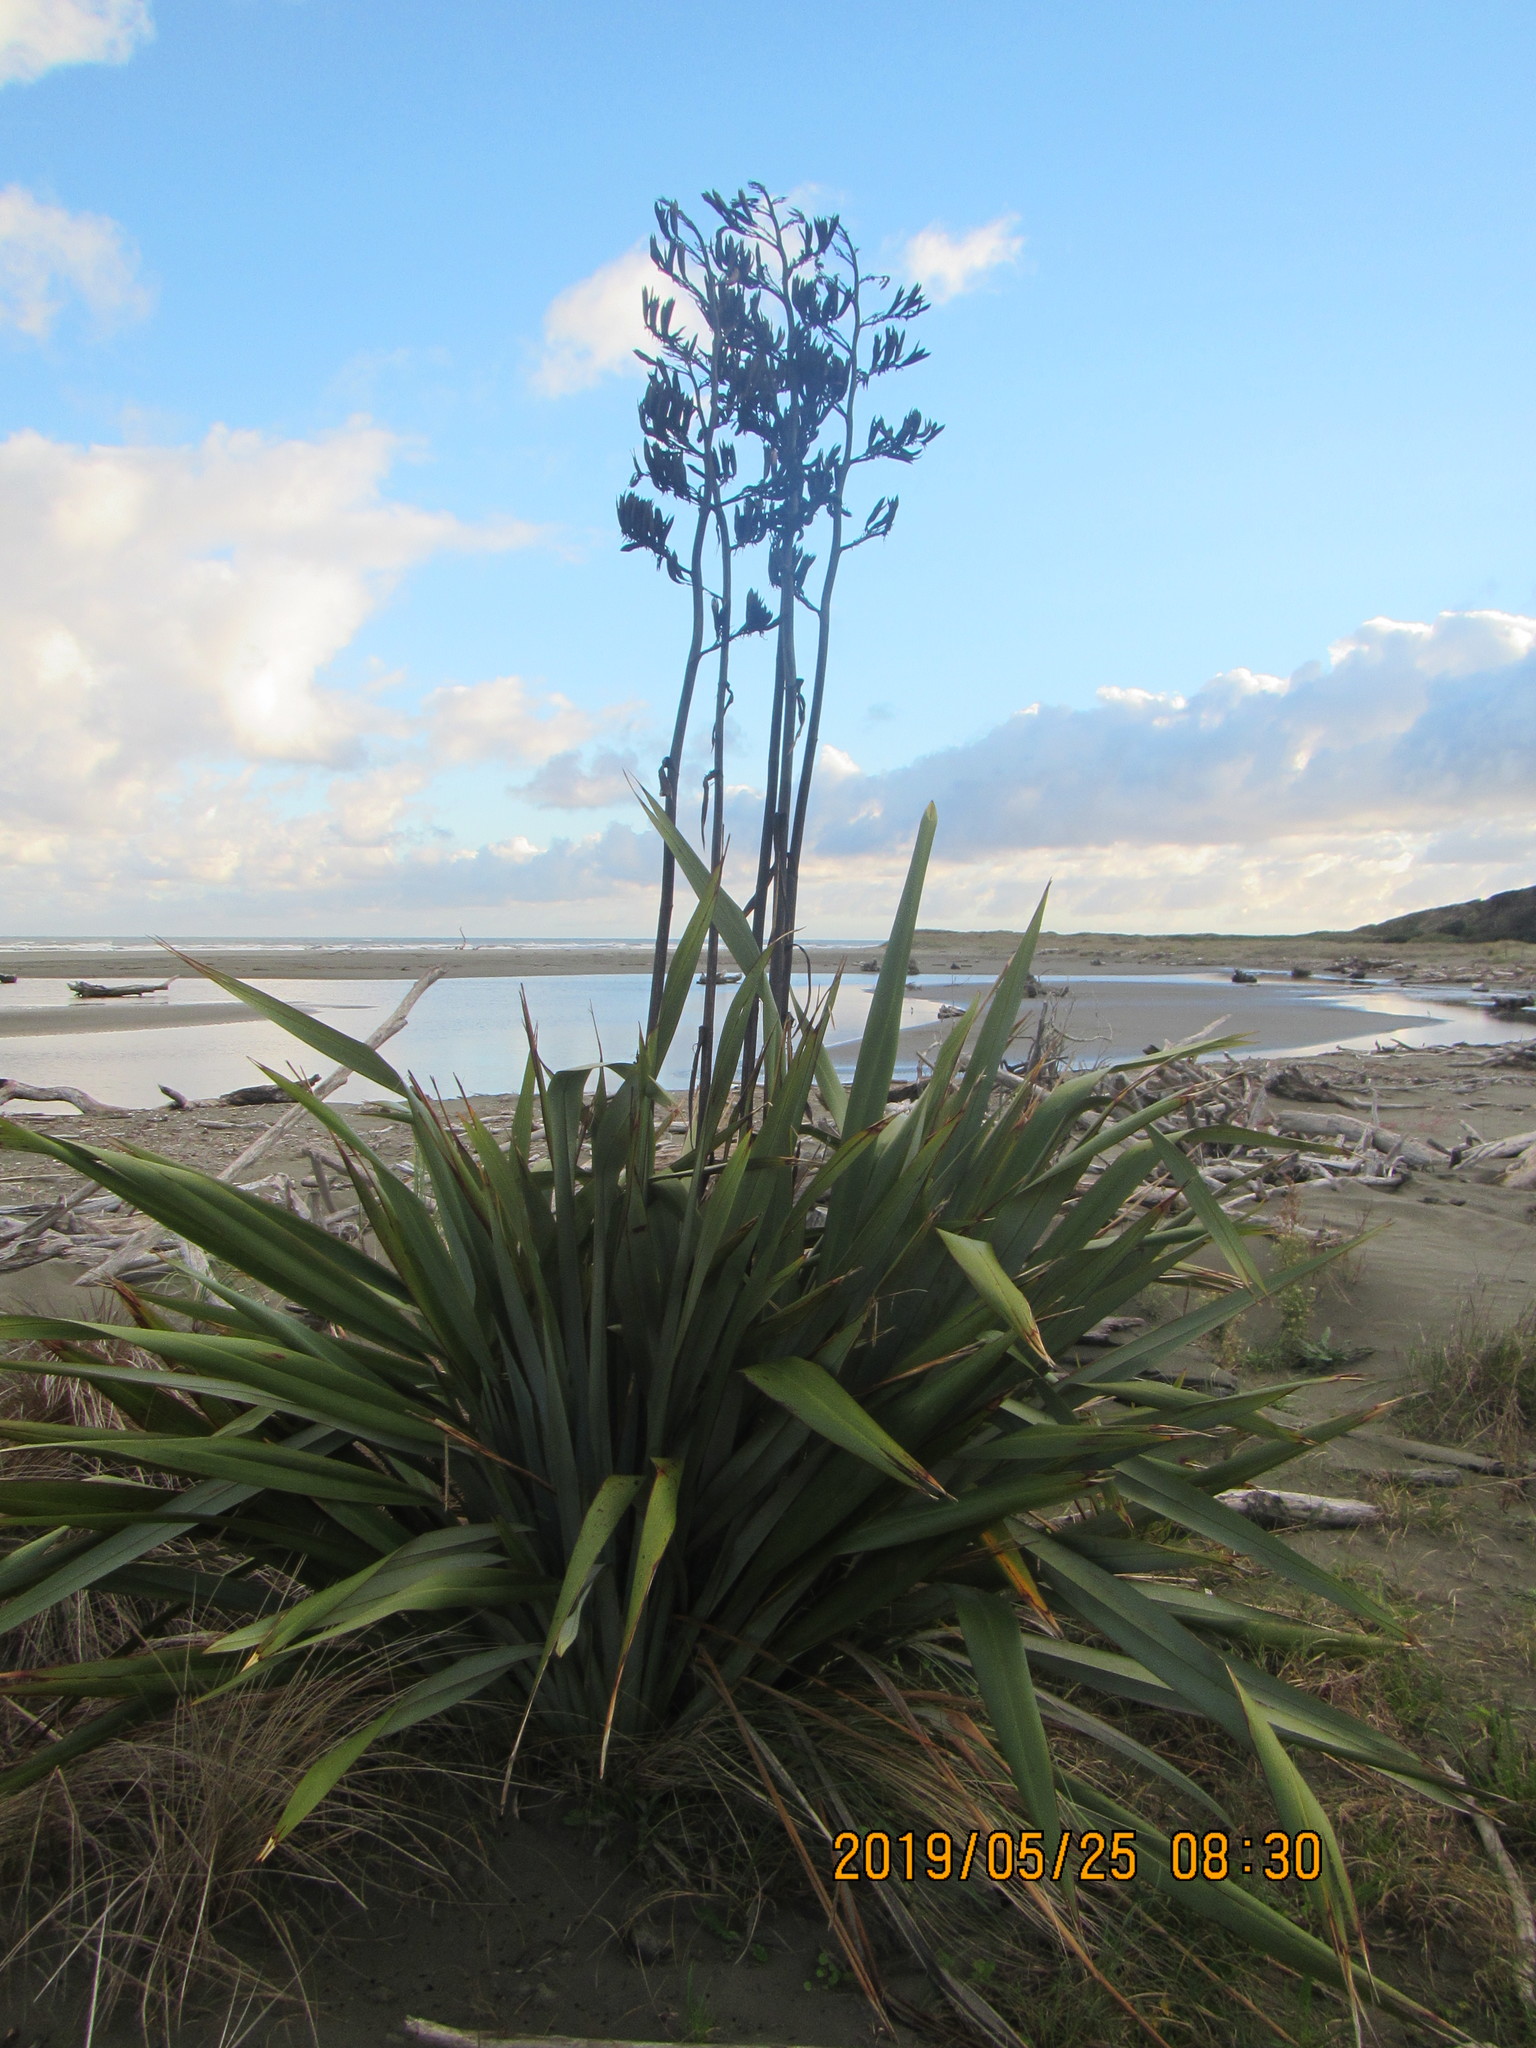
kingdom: Plantae
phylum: Tracheophyta
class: Liliopsida
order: Asparagales
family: Asphodelaceae
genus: Phormium
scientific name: Phormium tenax
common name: New zealand flax
